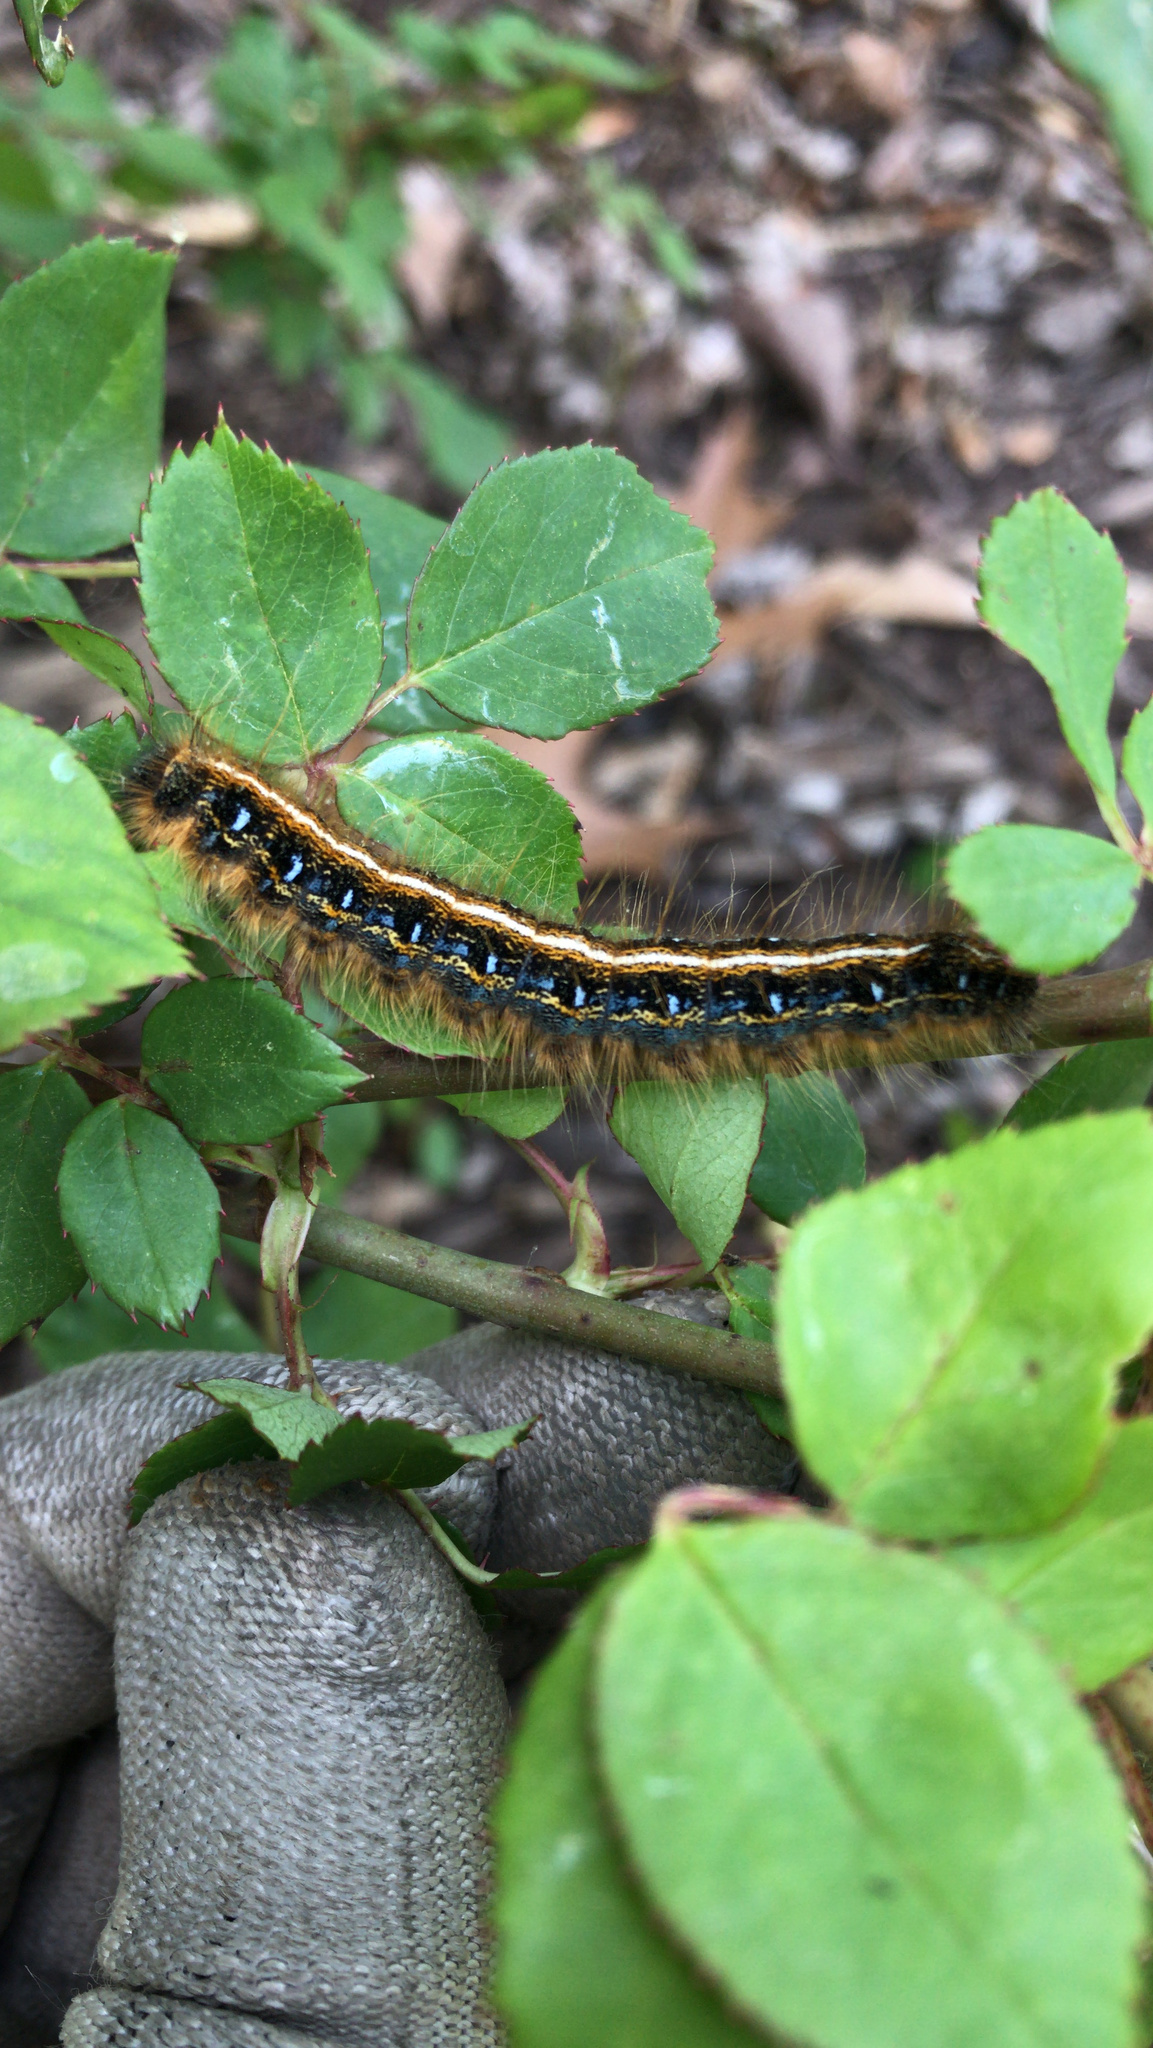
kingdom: Animalia
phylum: Arthropoda
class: Insecta
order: Lepidoptera
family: Lasiocampidae
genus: Malacosoma
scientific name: Malacosoma americana
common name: Eastern tent caterpillar moth
